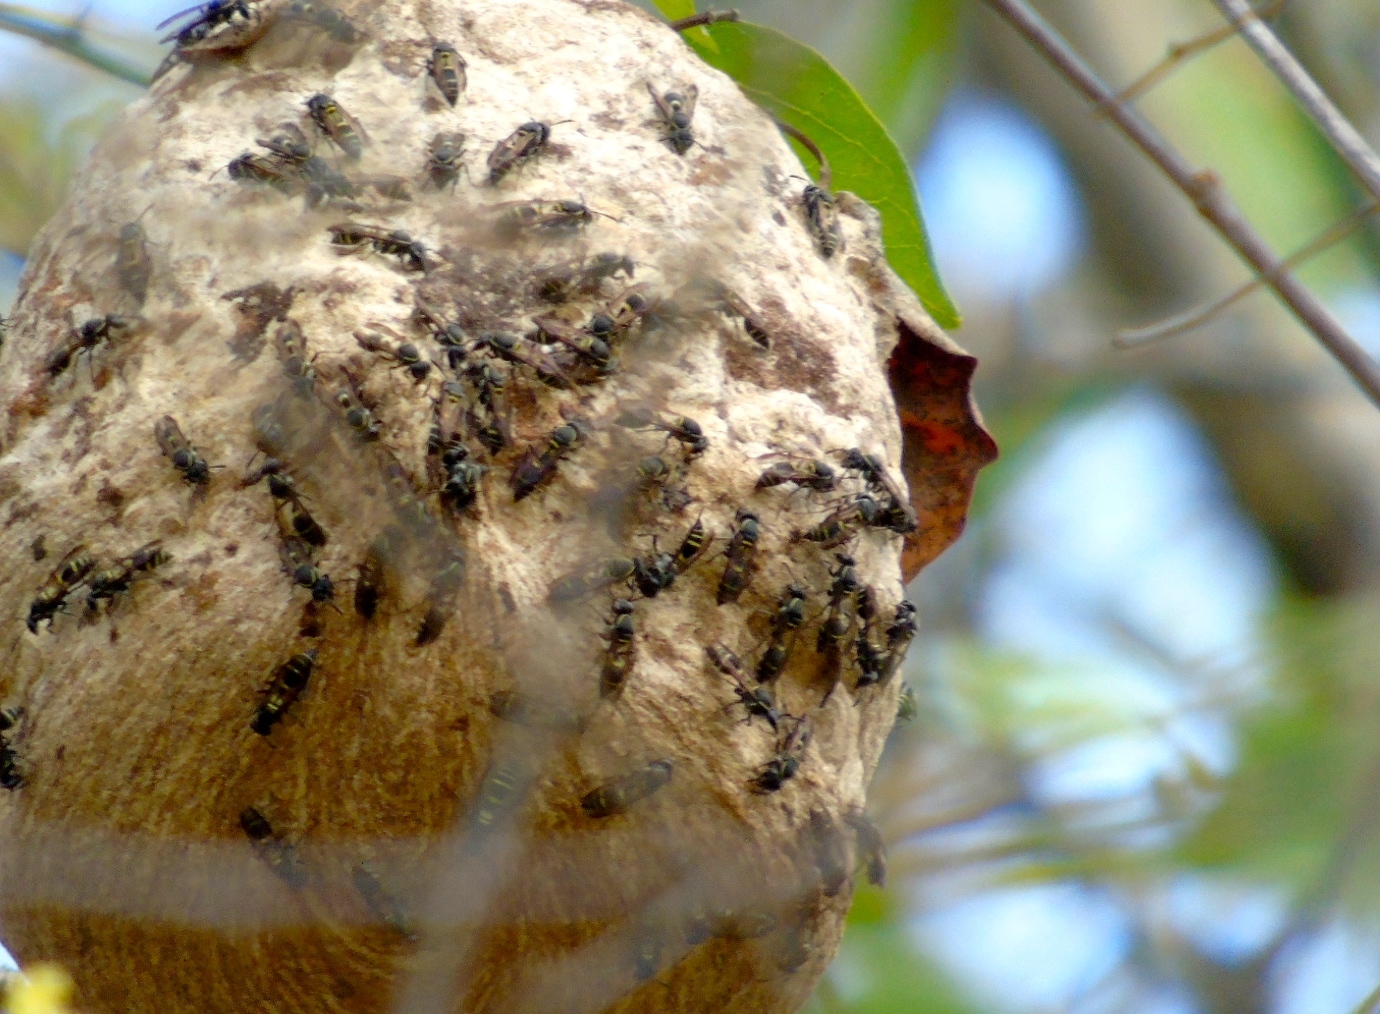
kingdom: Animalia
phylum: Arthropoda
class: Insecta
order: Hymenoptera
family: Vespidae
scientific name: Vespidae
